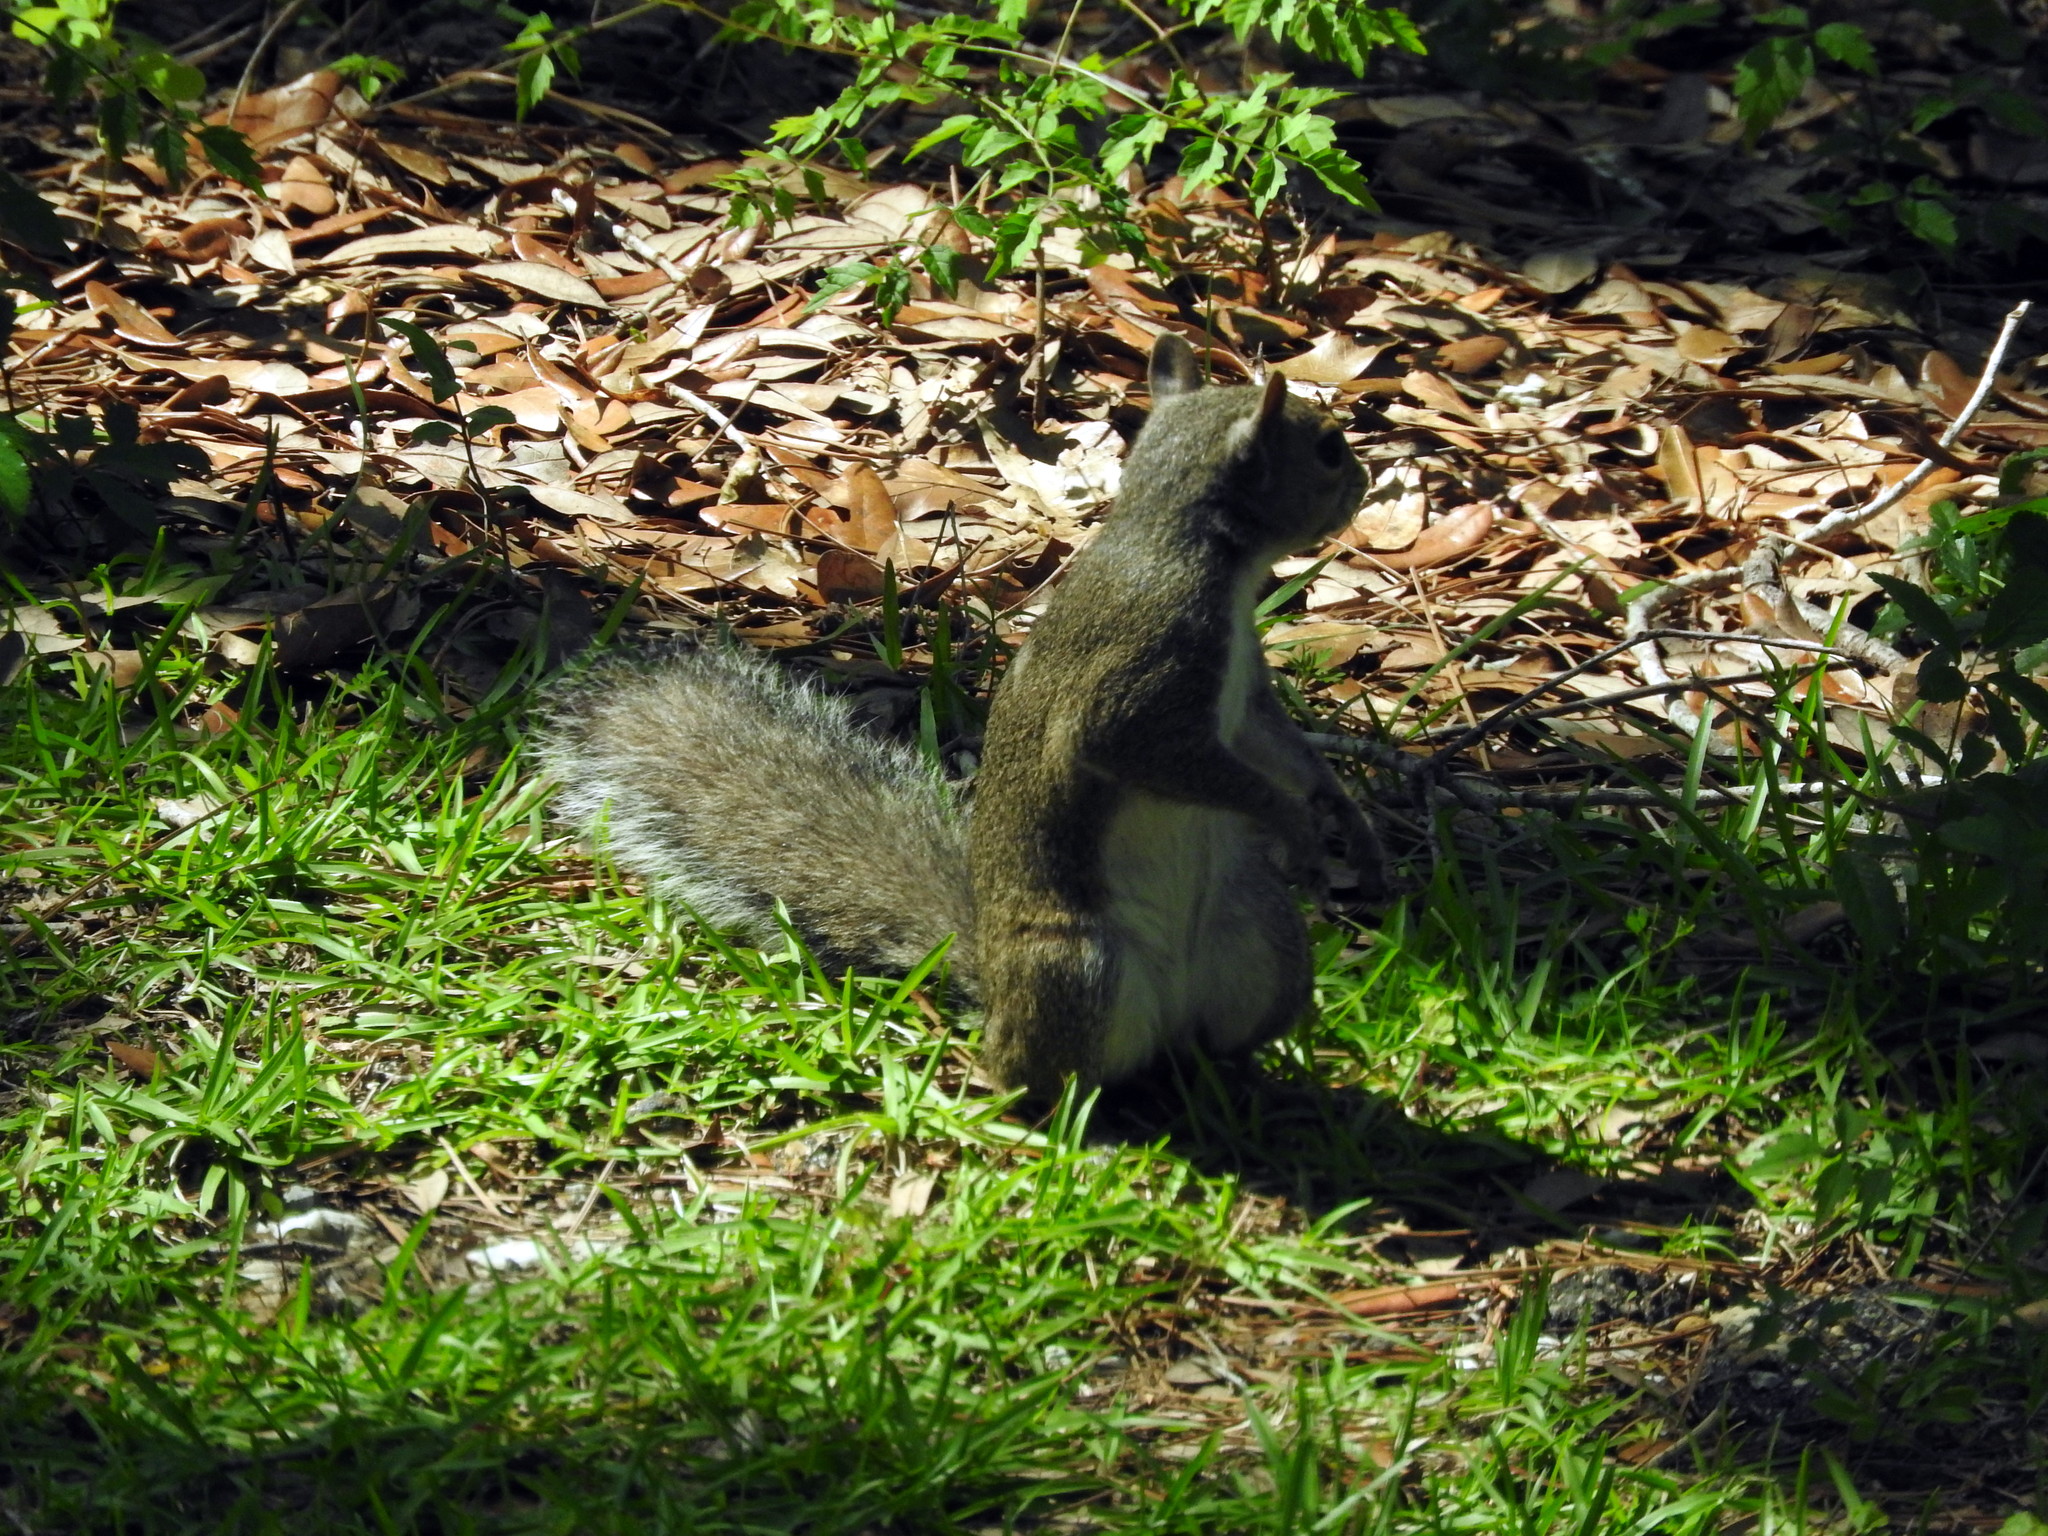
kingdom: Animalia
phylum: Chordata
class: Mammalia
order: Rodentia
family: Sciuridae
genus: Sciurus
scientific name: Sciurus carolinensis
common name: Eastern gray squirrel
